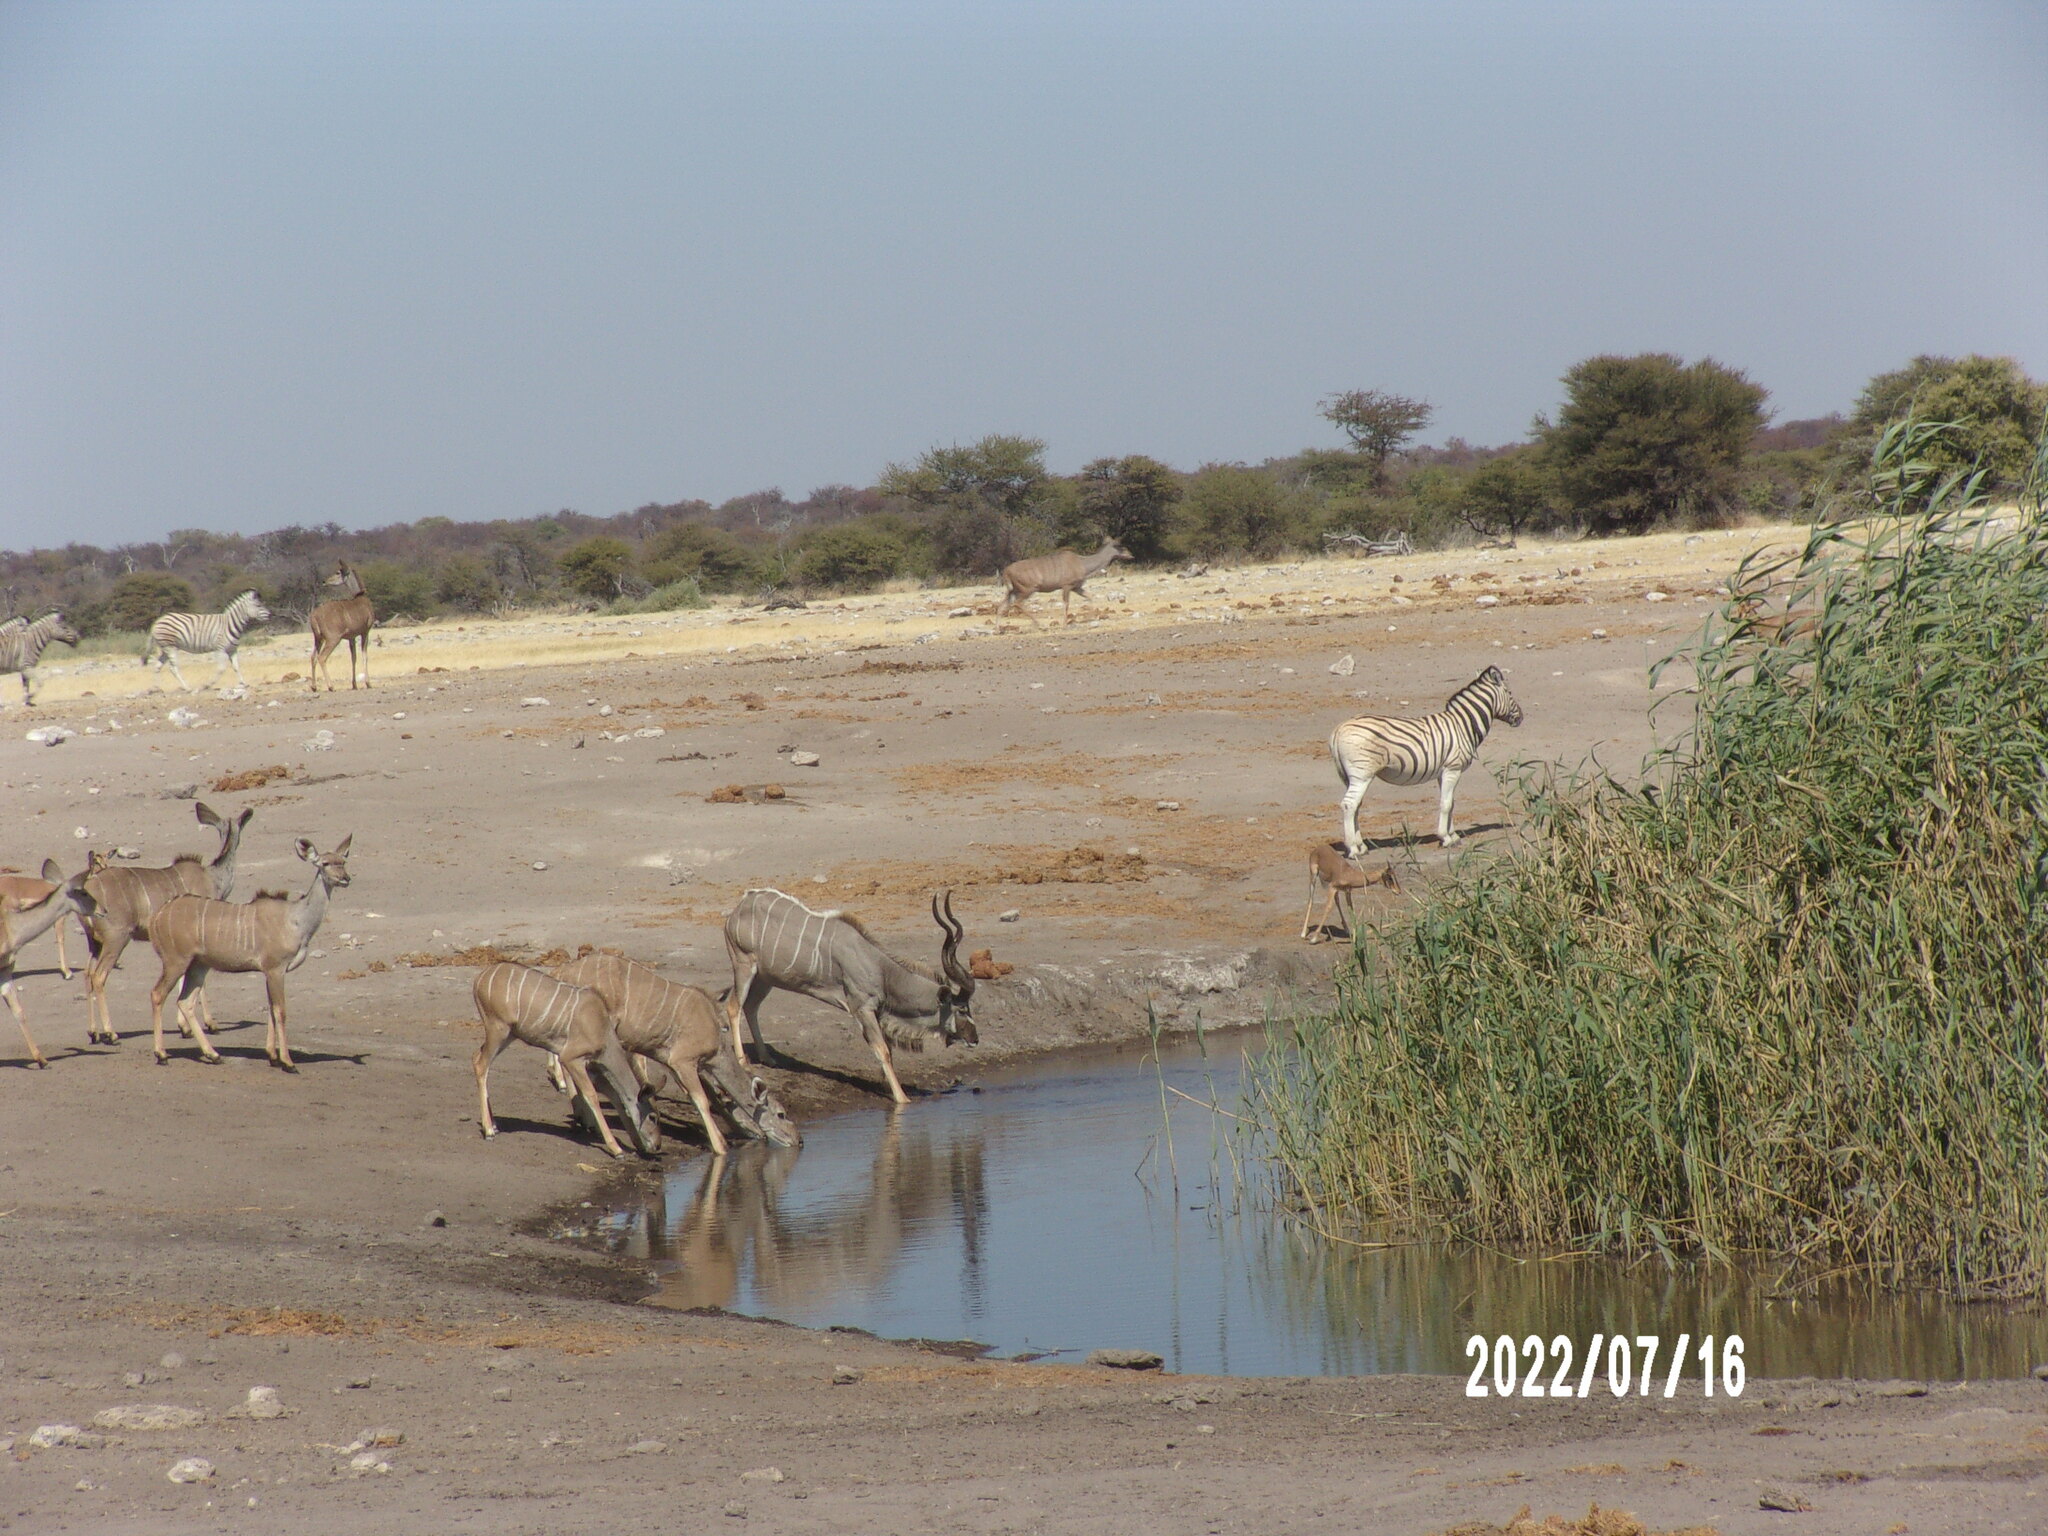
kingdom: Animalia
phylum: Chordata
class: Mammalia
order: Artiodactyla
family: Bovidae
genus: Tragelaphus
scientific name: Tragelaphus strepsiceros
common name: Greater kudu
